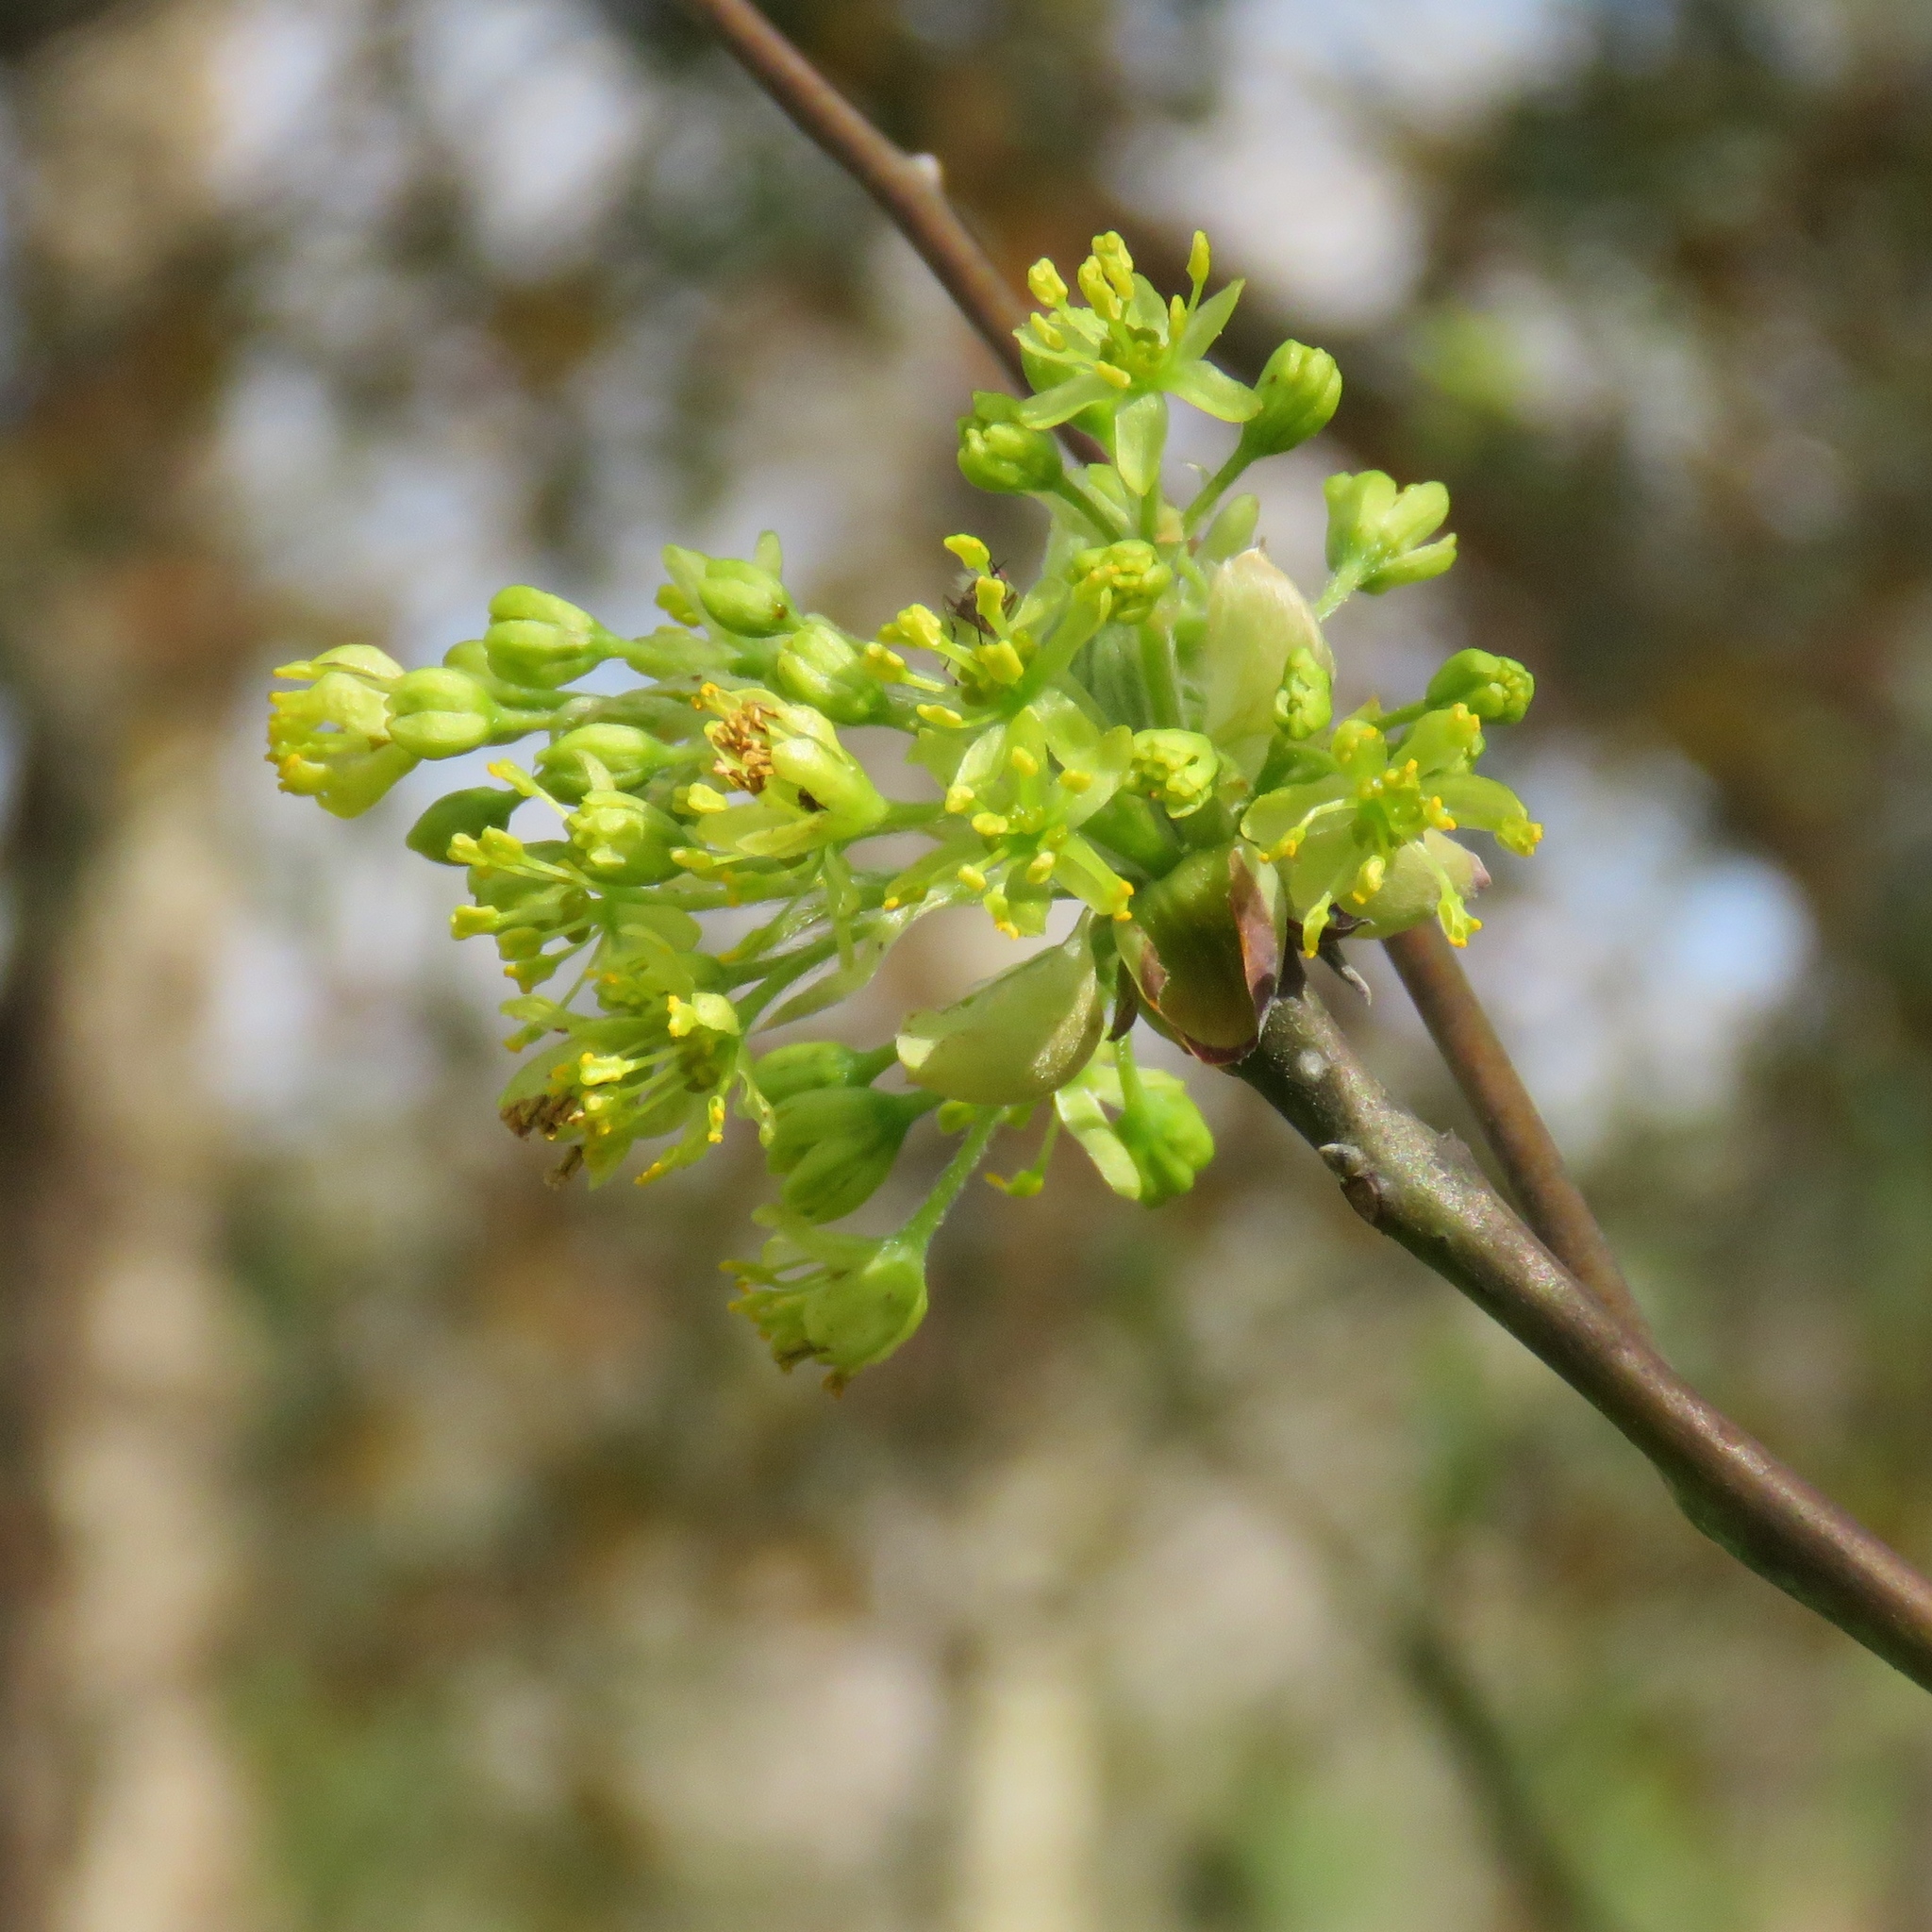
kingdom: Plantae
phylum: Tracheophyta
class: Magnoliopsida
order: Laurales
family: Lauraceae
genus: Sassafras
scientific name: Sassafras albidum
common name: Sassafras
